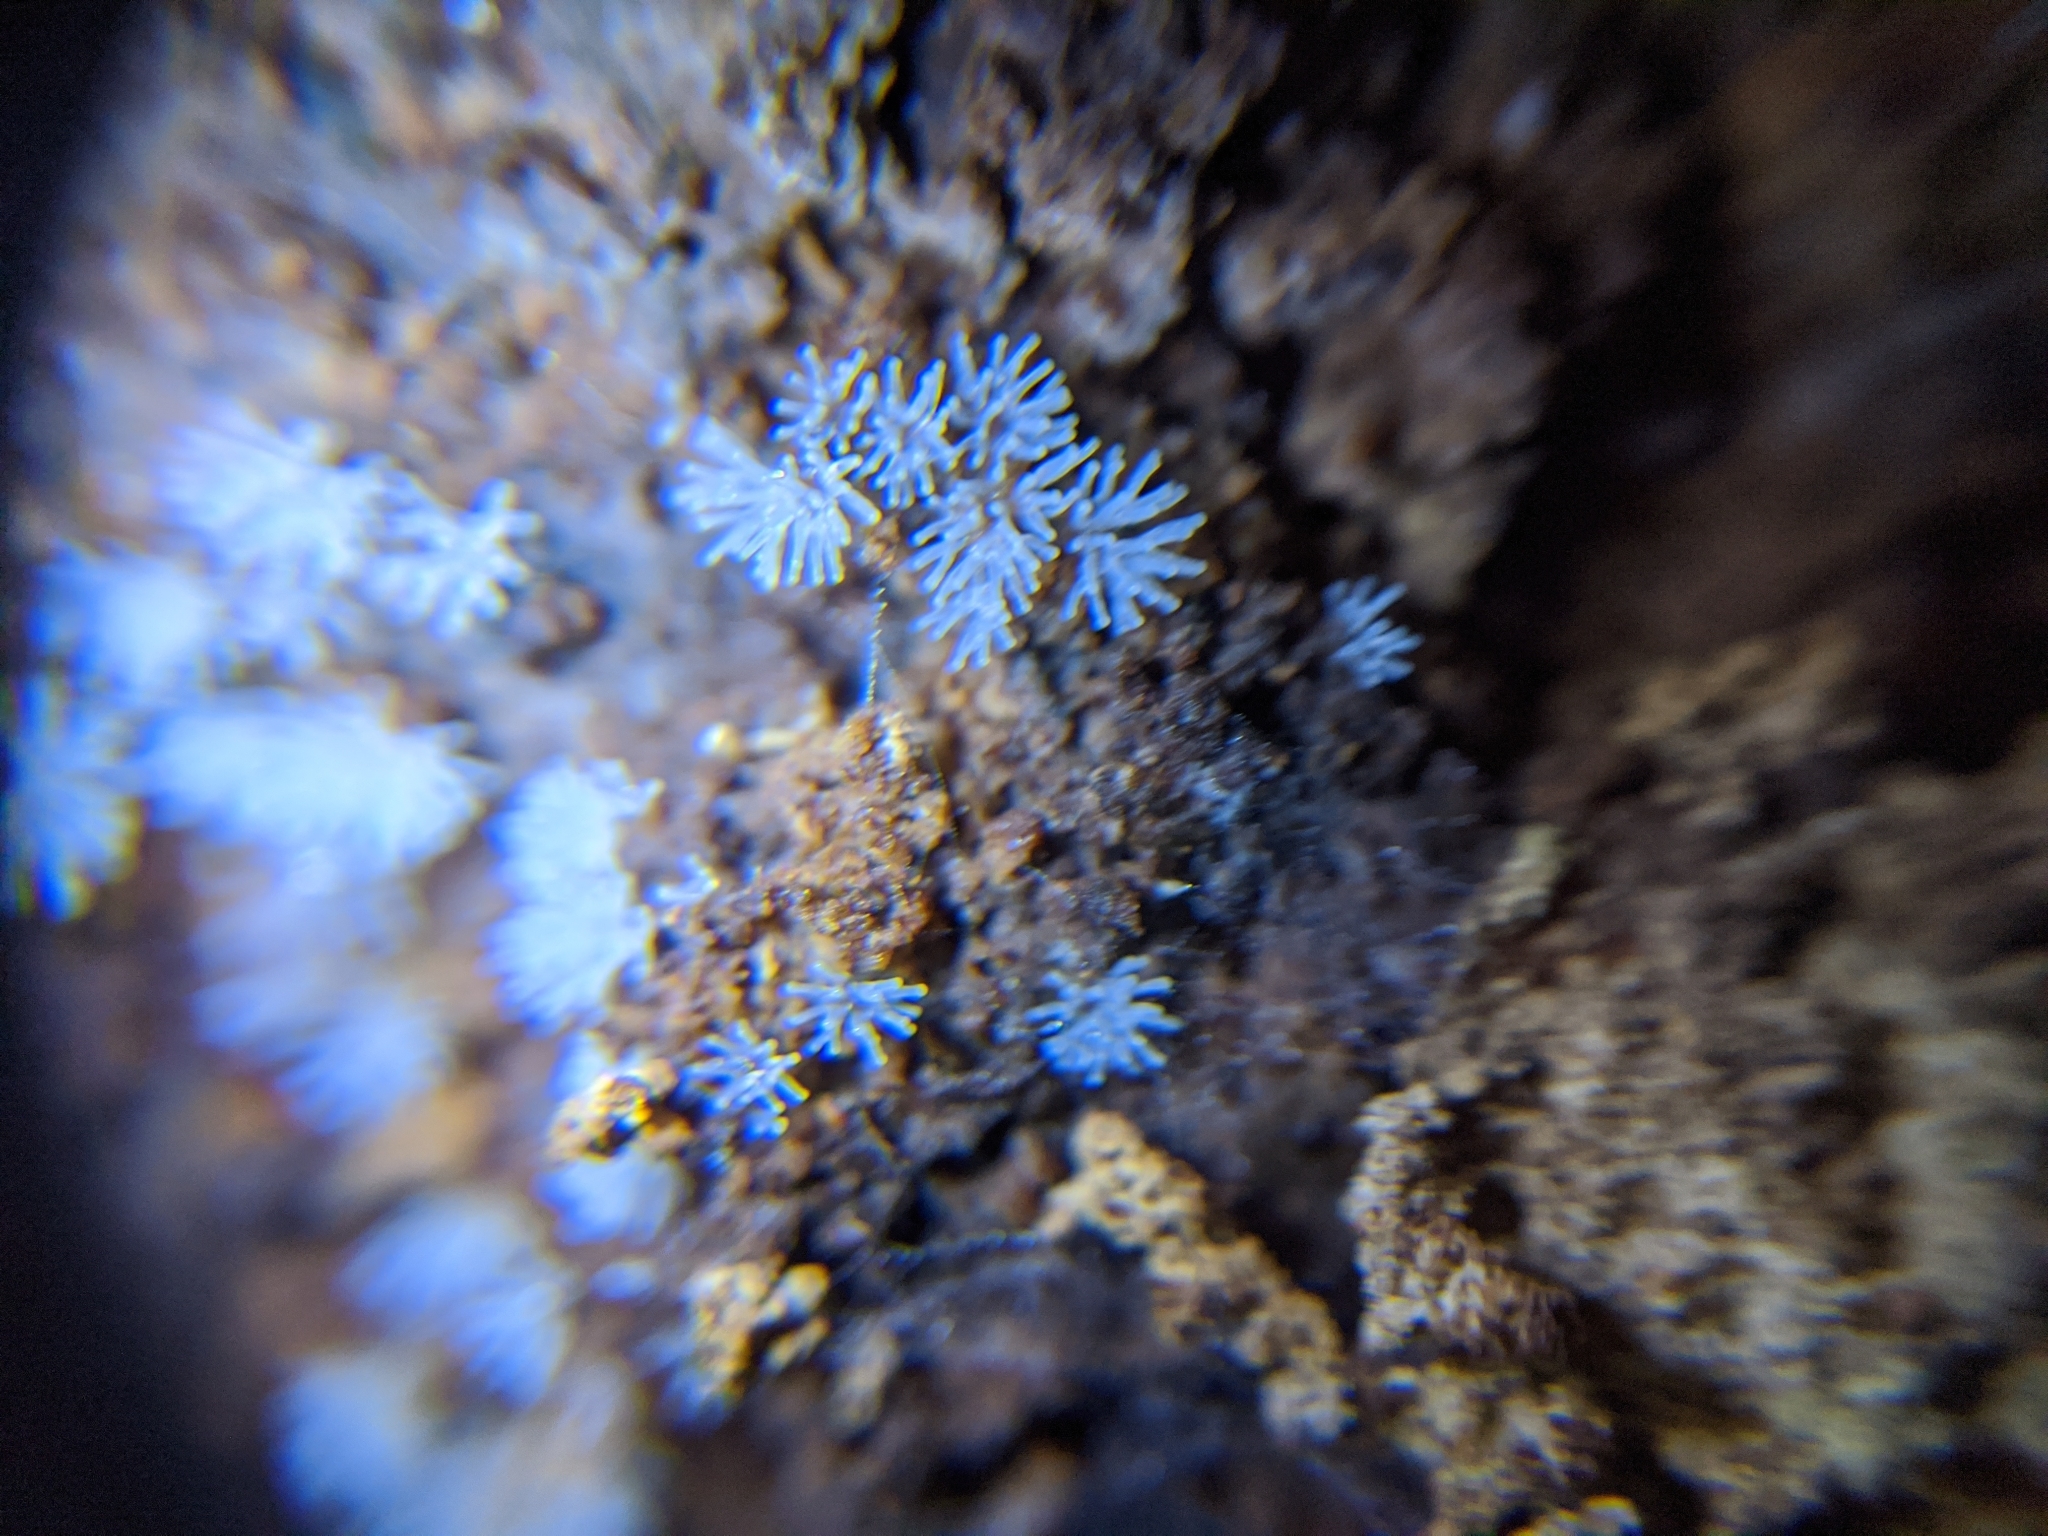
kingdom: Protozoa
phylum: Mycetozoa
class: Protosteliomycetes
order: Ceratiomyxales
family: Ceratiomyxaceae
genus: Ceratiomyxa
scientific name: Ceratiomyxa fruticulosa
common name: Honeycomb coral slime mold
